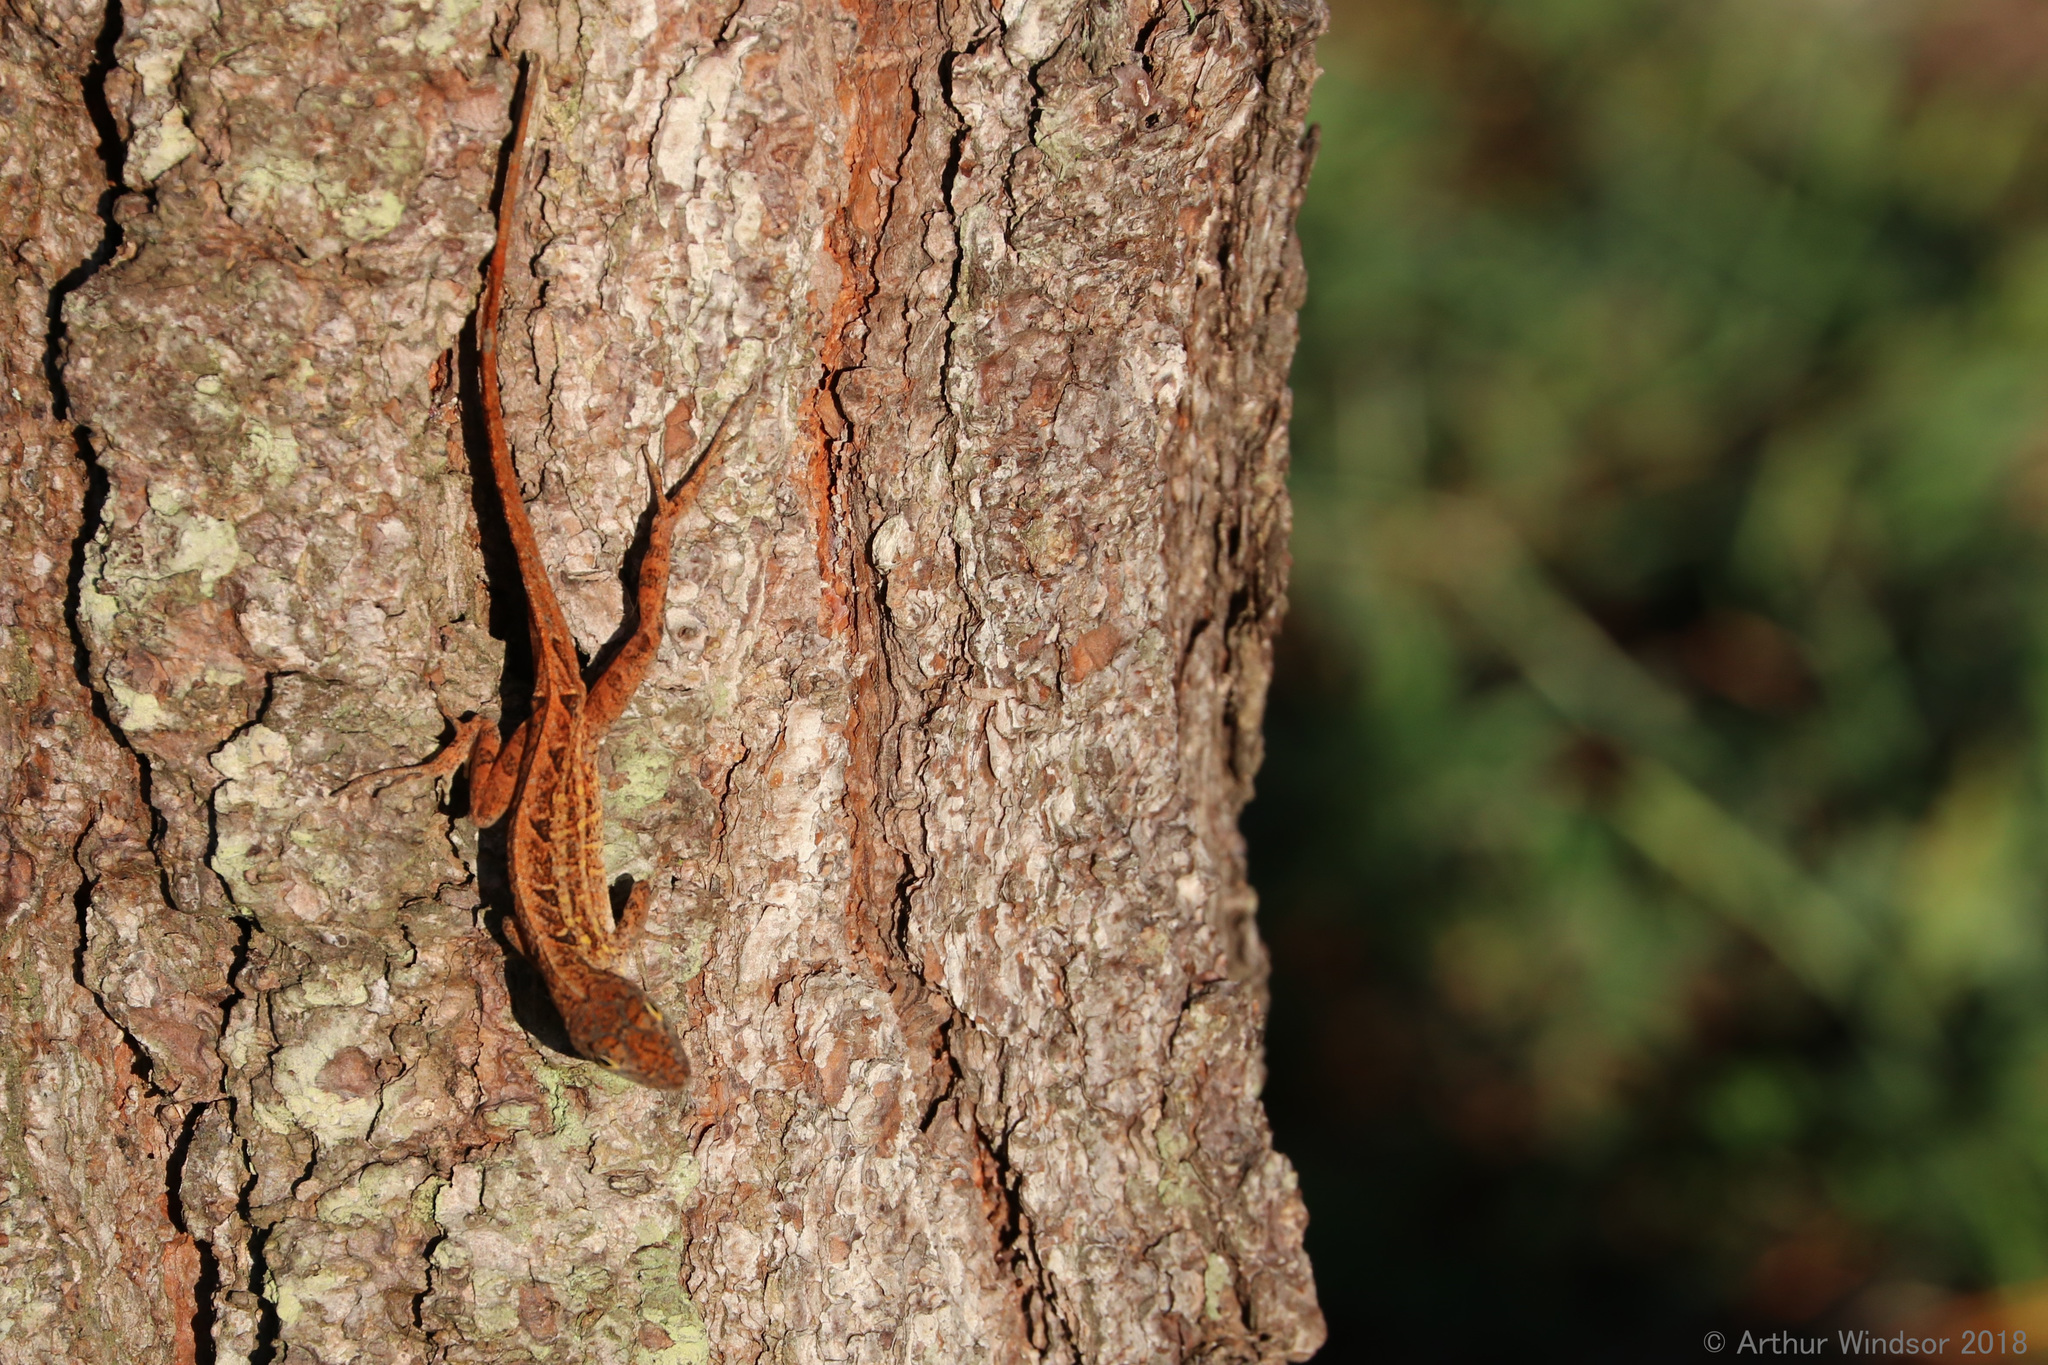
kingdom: Animalia
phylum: Chordata
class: Squamata
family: Dactyloidae
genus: Anolis
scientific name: Anolis sagrei
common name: Brown anole
